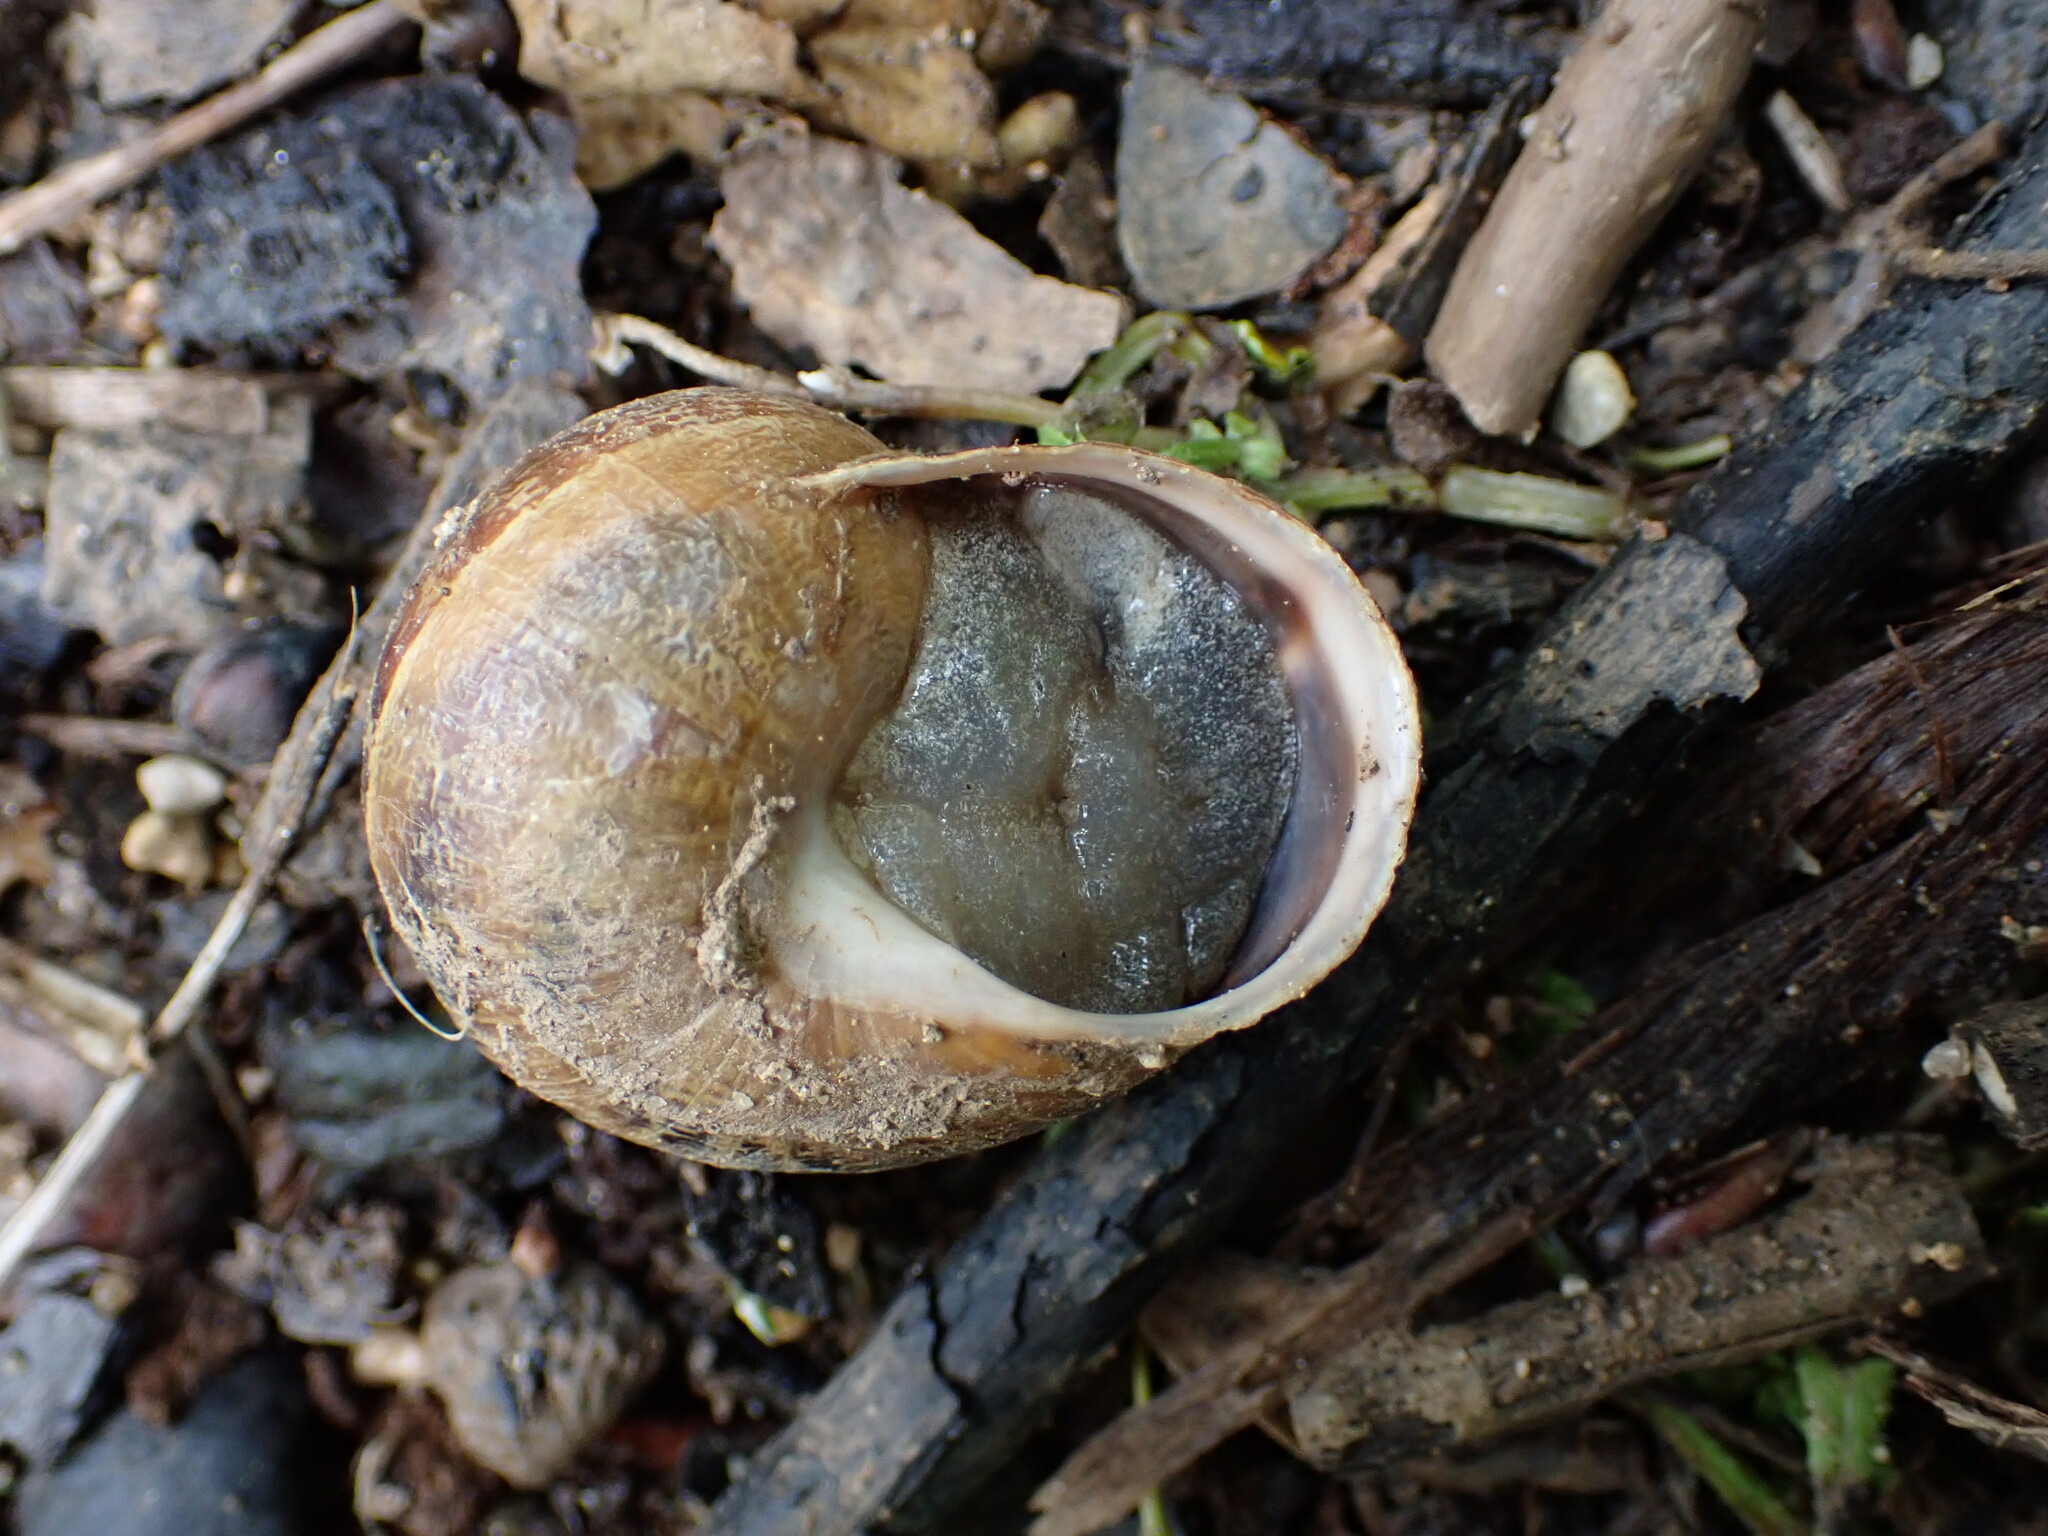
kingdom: Animalia
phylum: Mollusca
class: Gastropoda
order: Stylommatophora
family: Helicidae
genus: Cornu
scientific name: Cornu aspersum
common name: Brown garden snail
